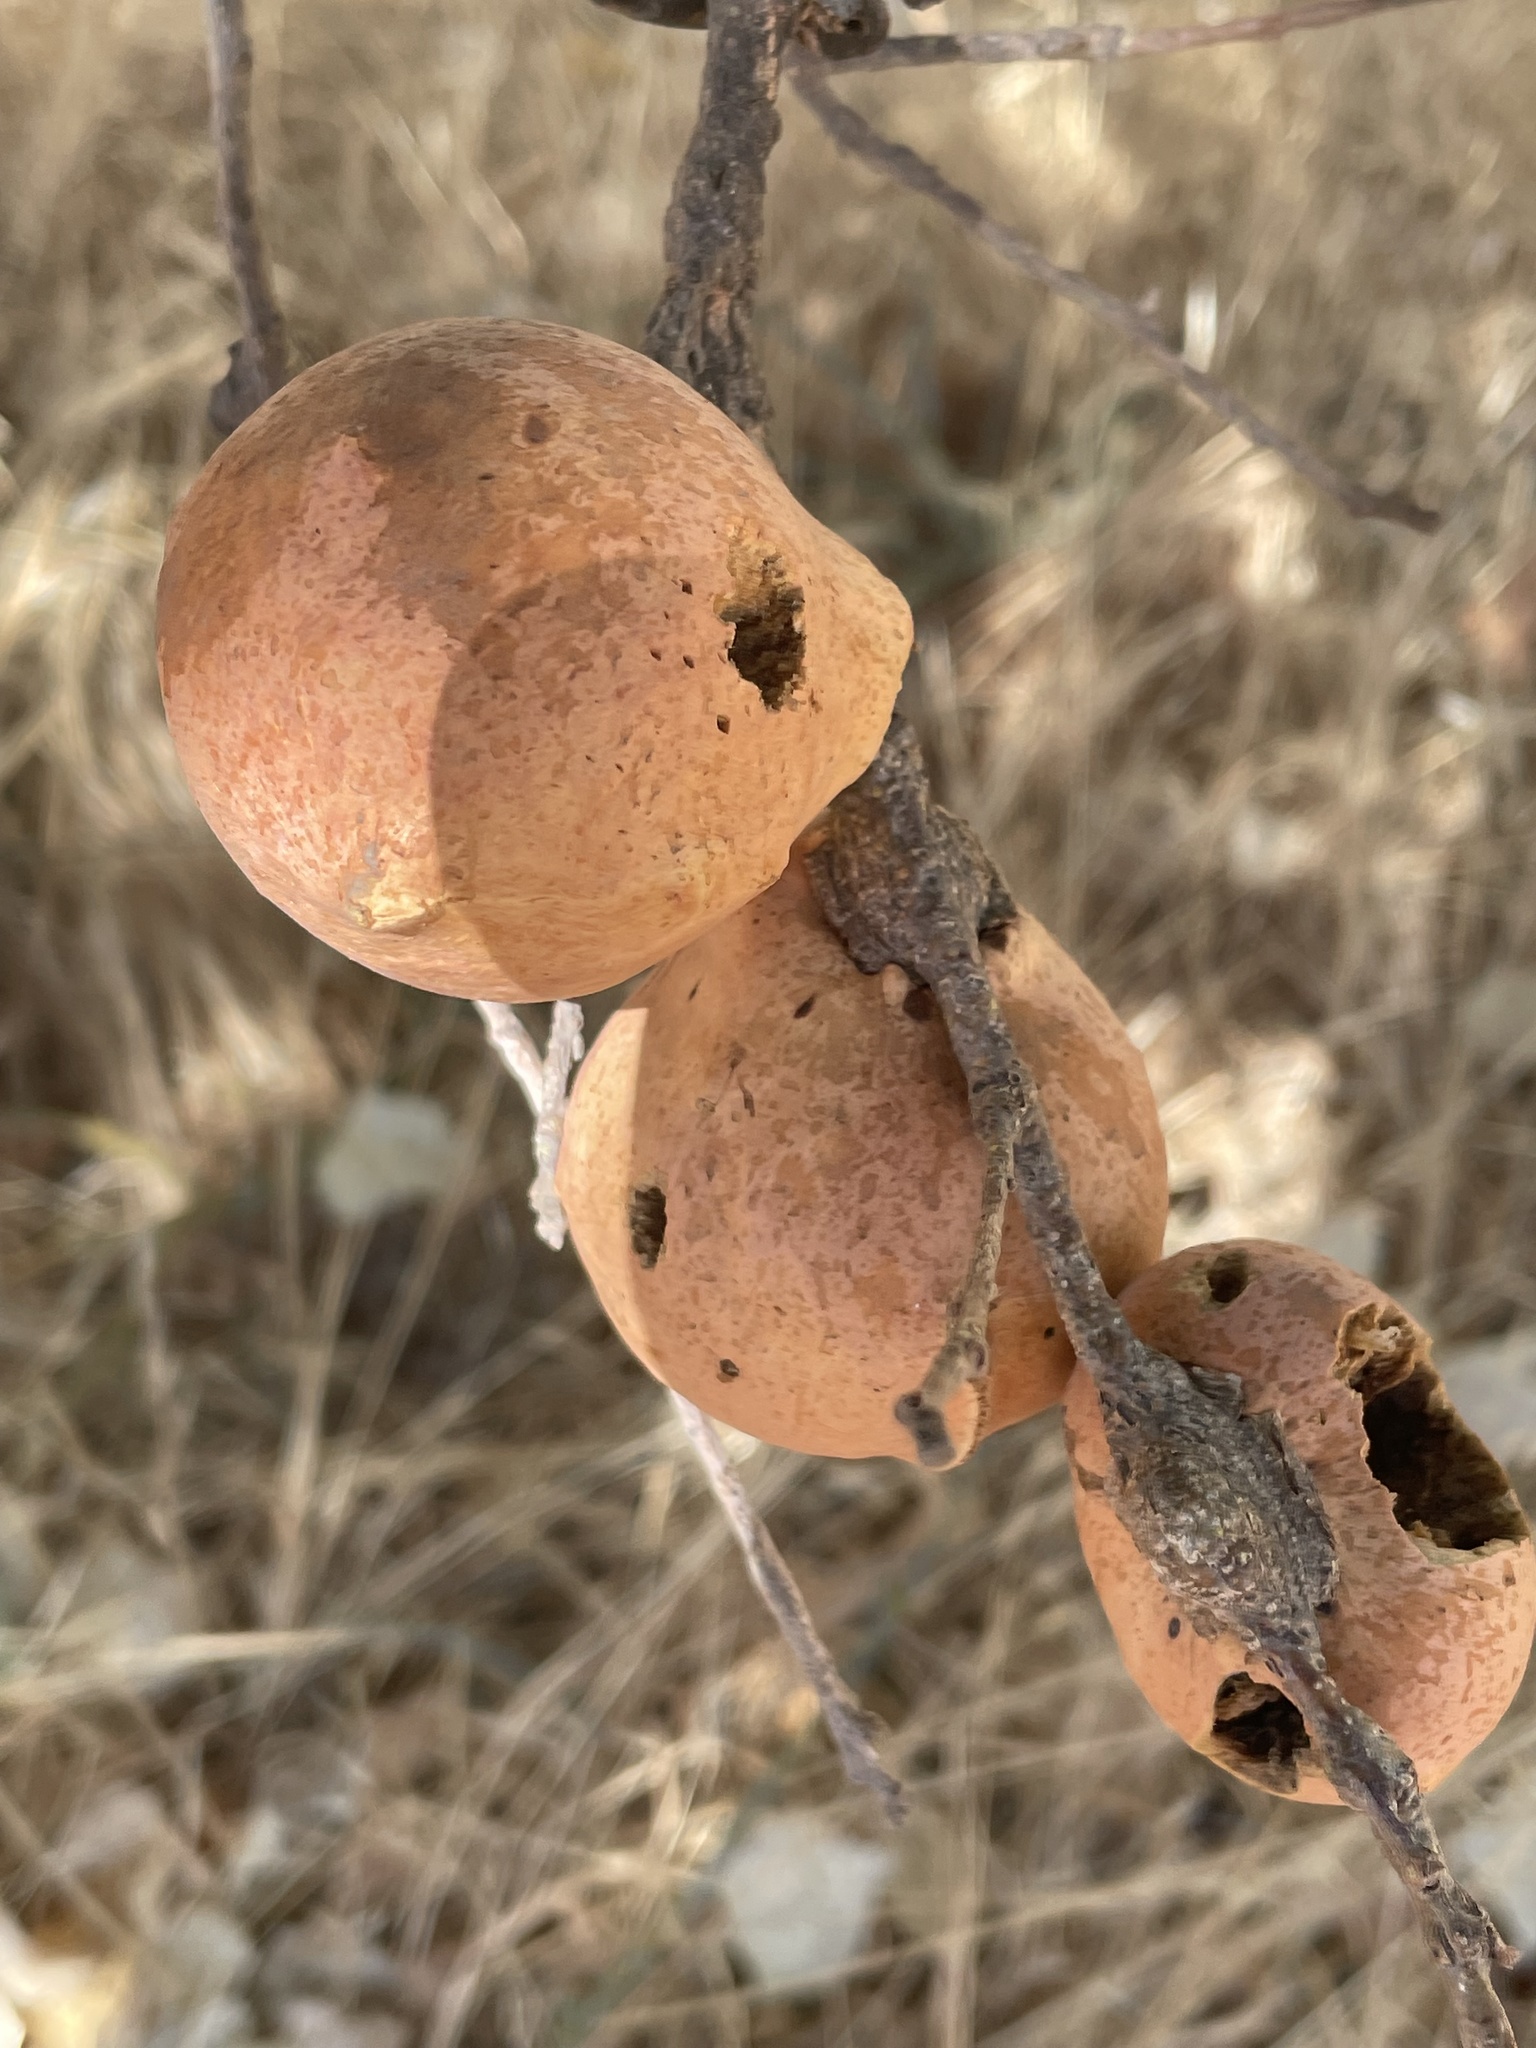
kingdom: Animalia
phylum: Arthropoda
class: Insecta
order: Hymenoptera
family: Cynipidae
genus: Andricus
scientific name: Andricus quercuscalifornicus
